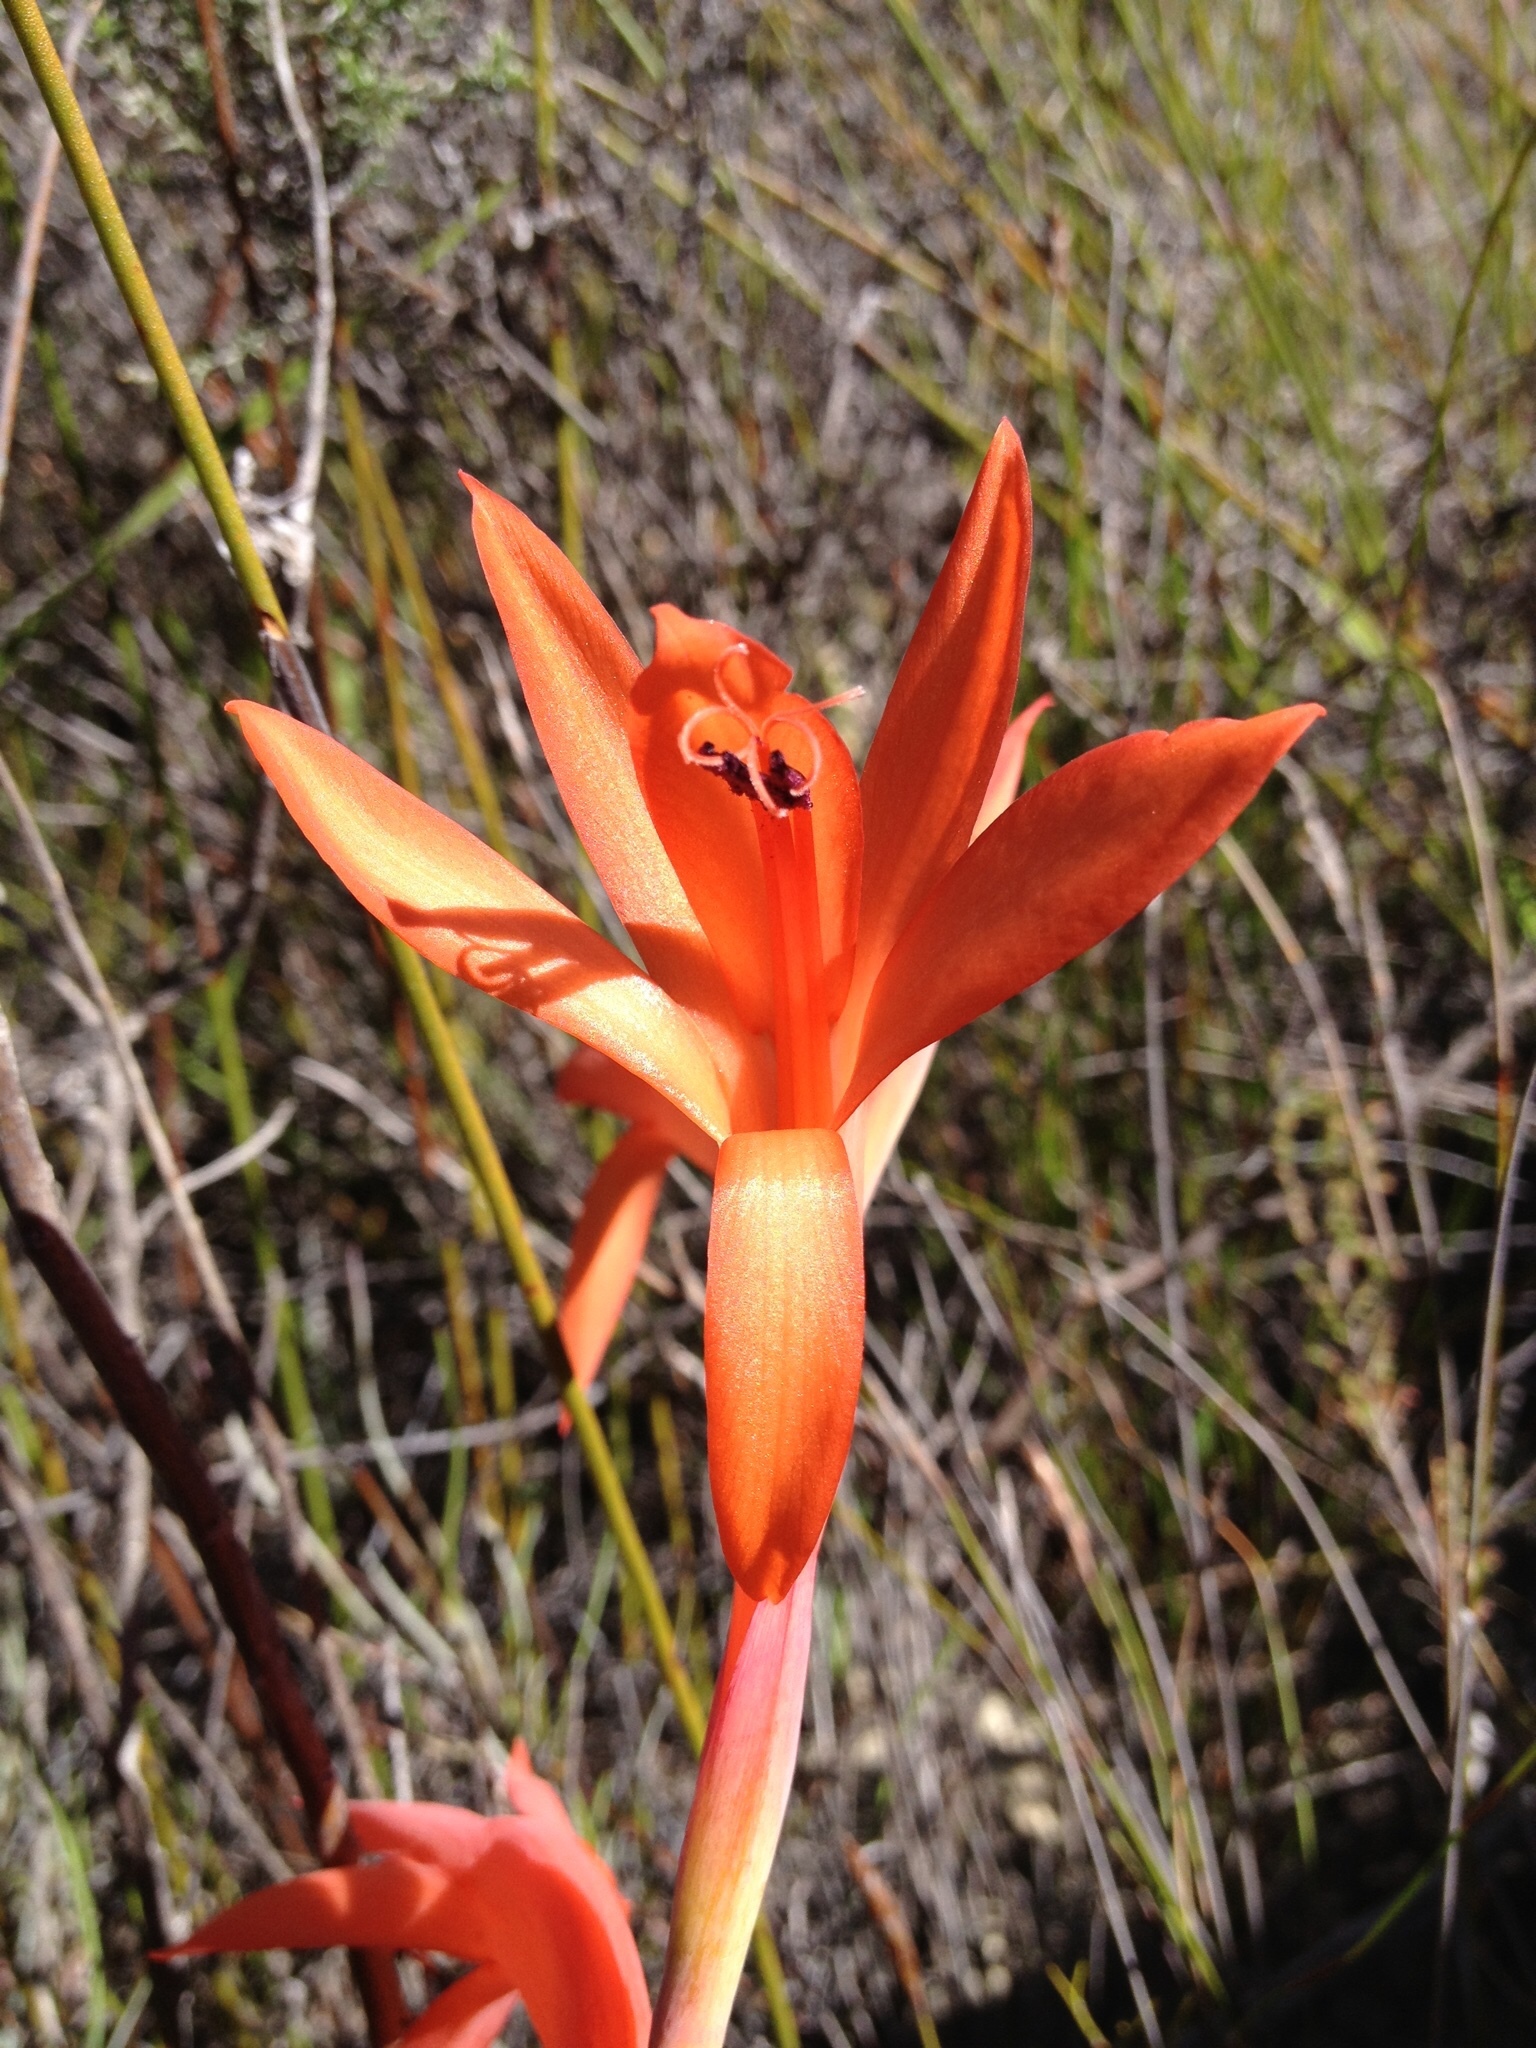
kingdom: Plantae
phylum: Tracheophyta
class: Liliopsida
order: Asparagales
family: Iridaceae
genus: Watsonia
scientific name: Watsonia coccinea
